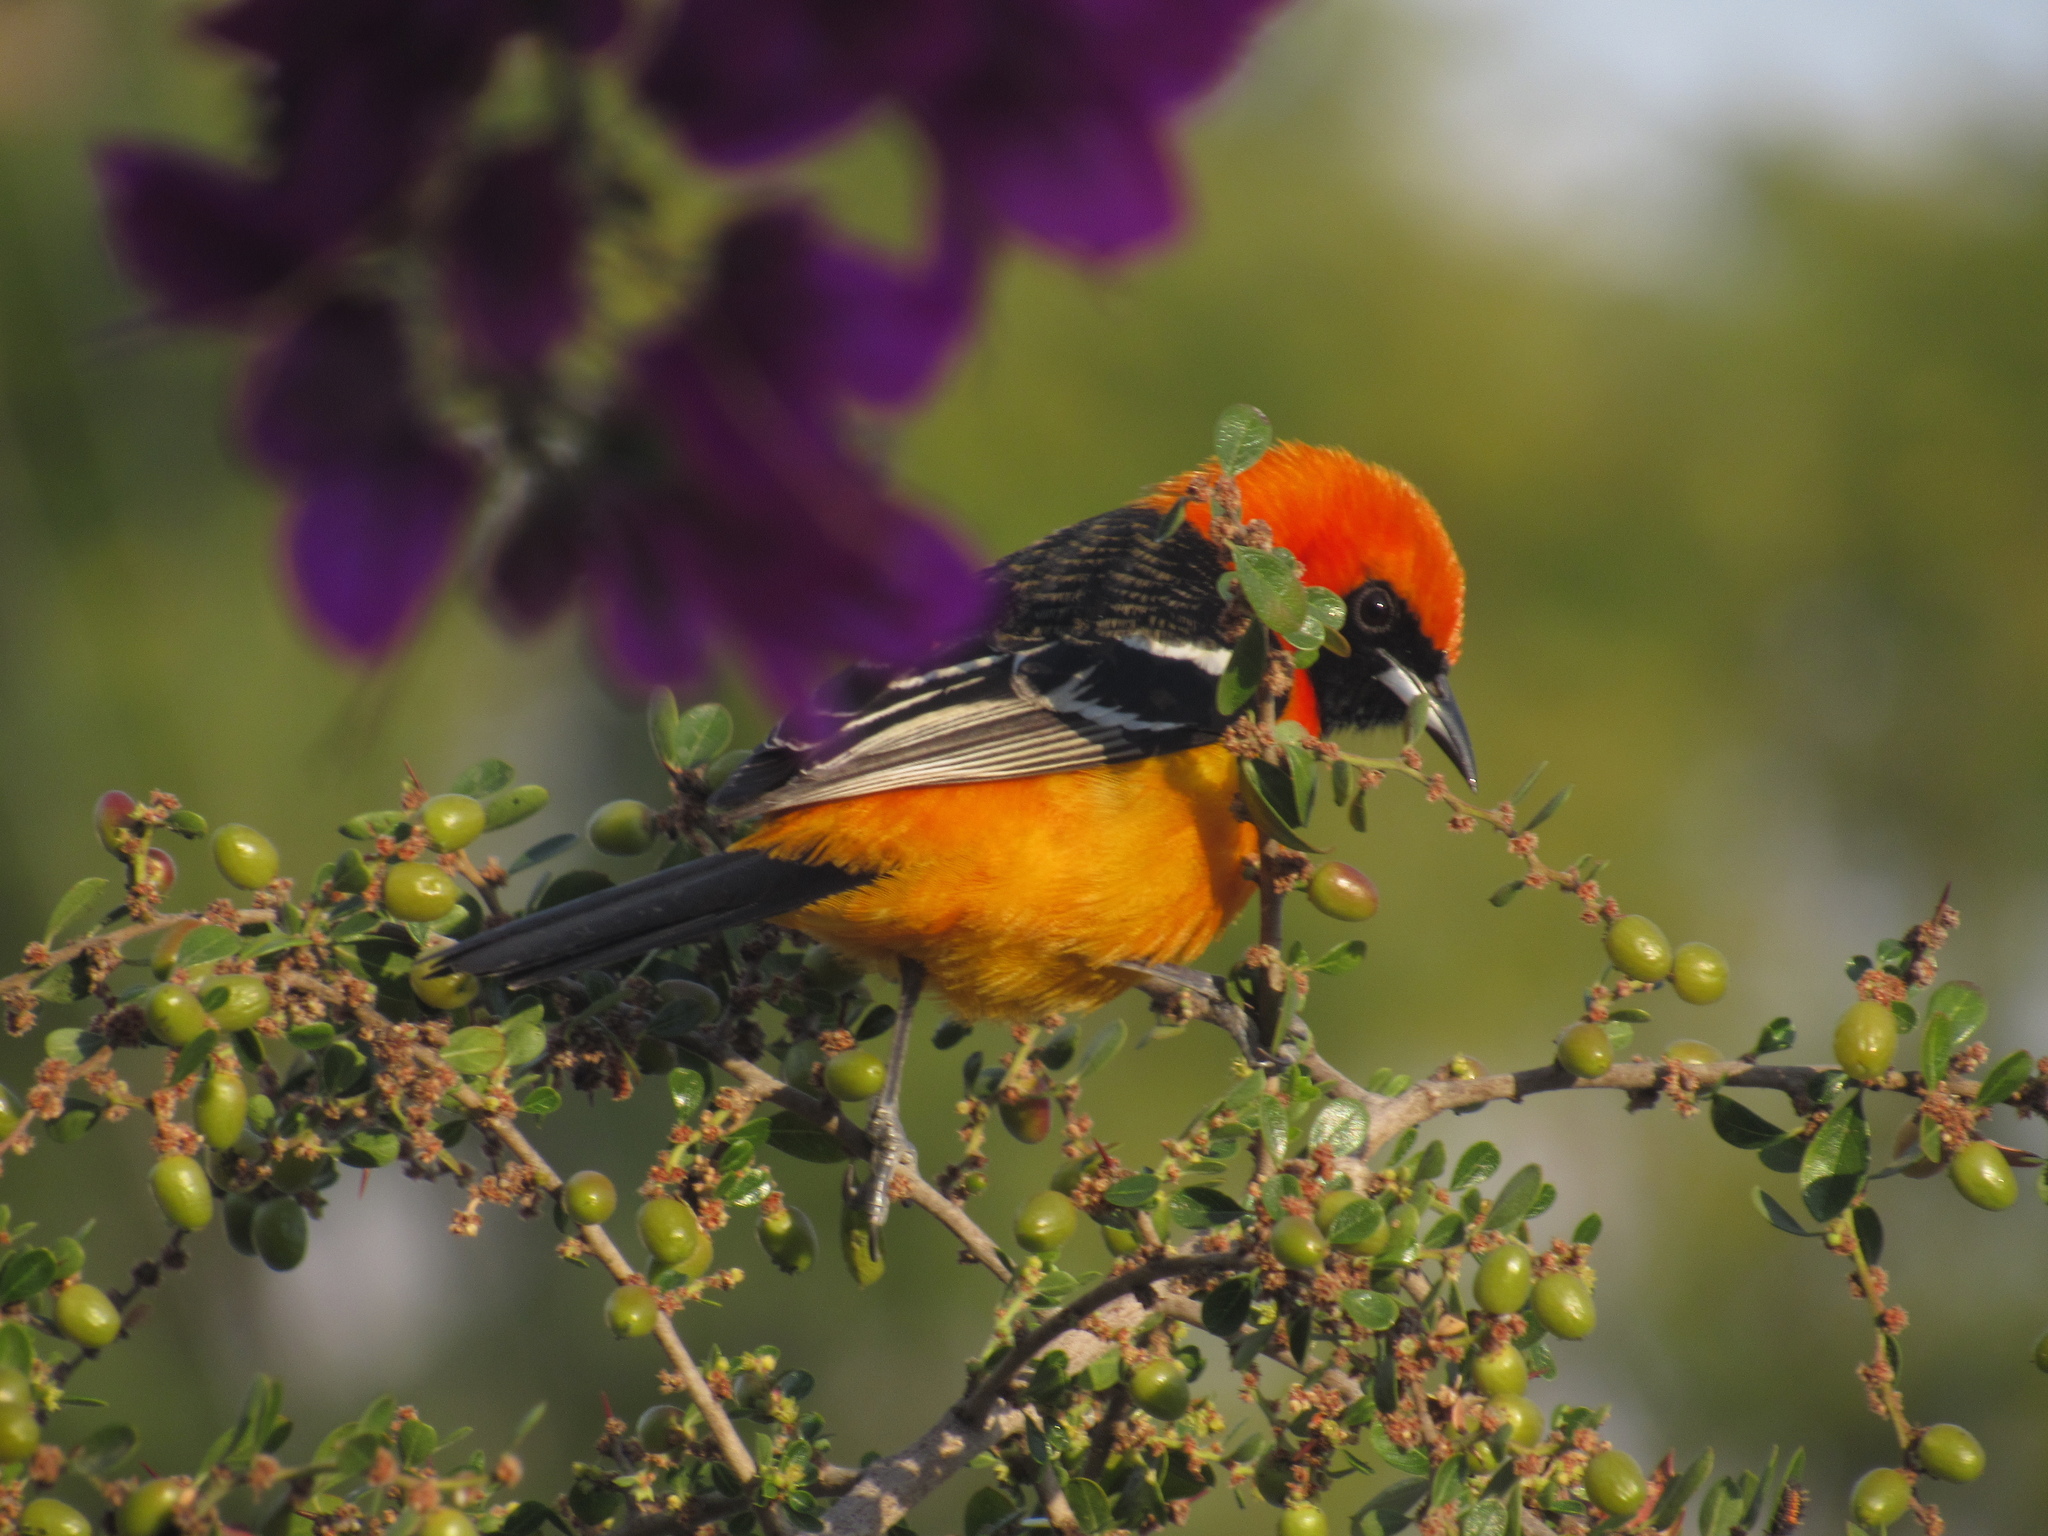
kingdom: Animalia
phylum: Chordata
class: Aves
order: Passeriformes
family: Icteridae
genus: Icterus
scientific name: Icterus cucullatus
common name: Hooded oriole
